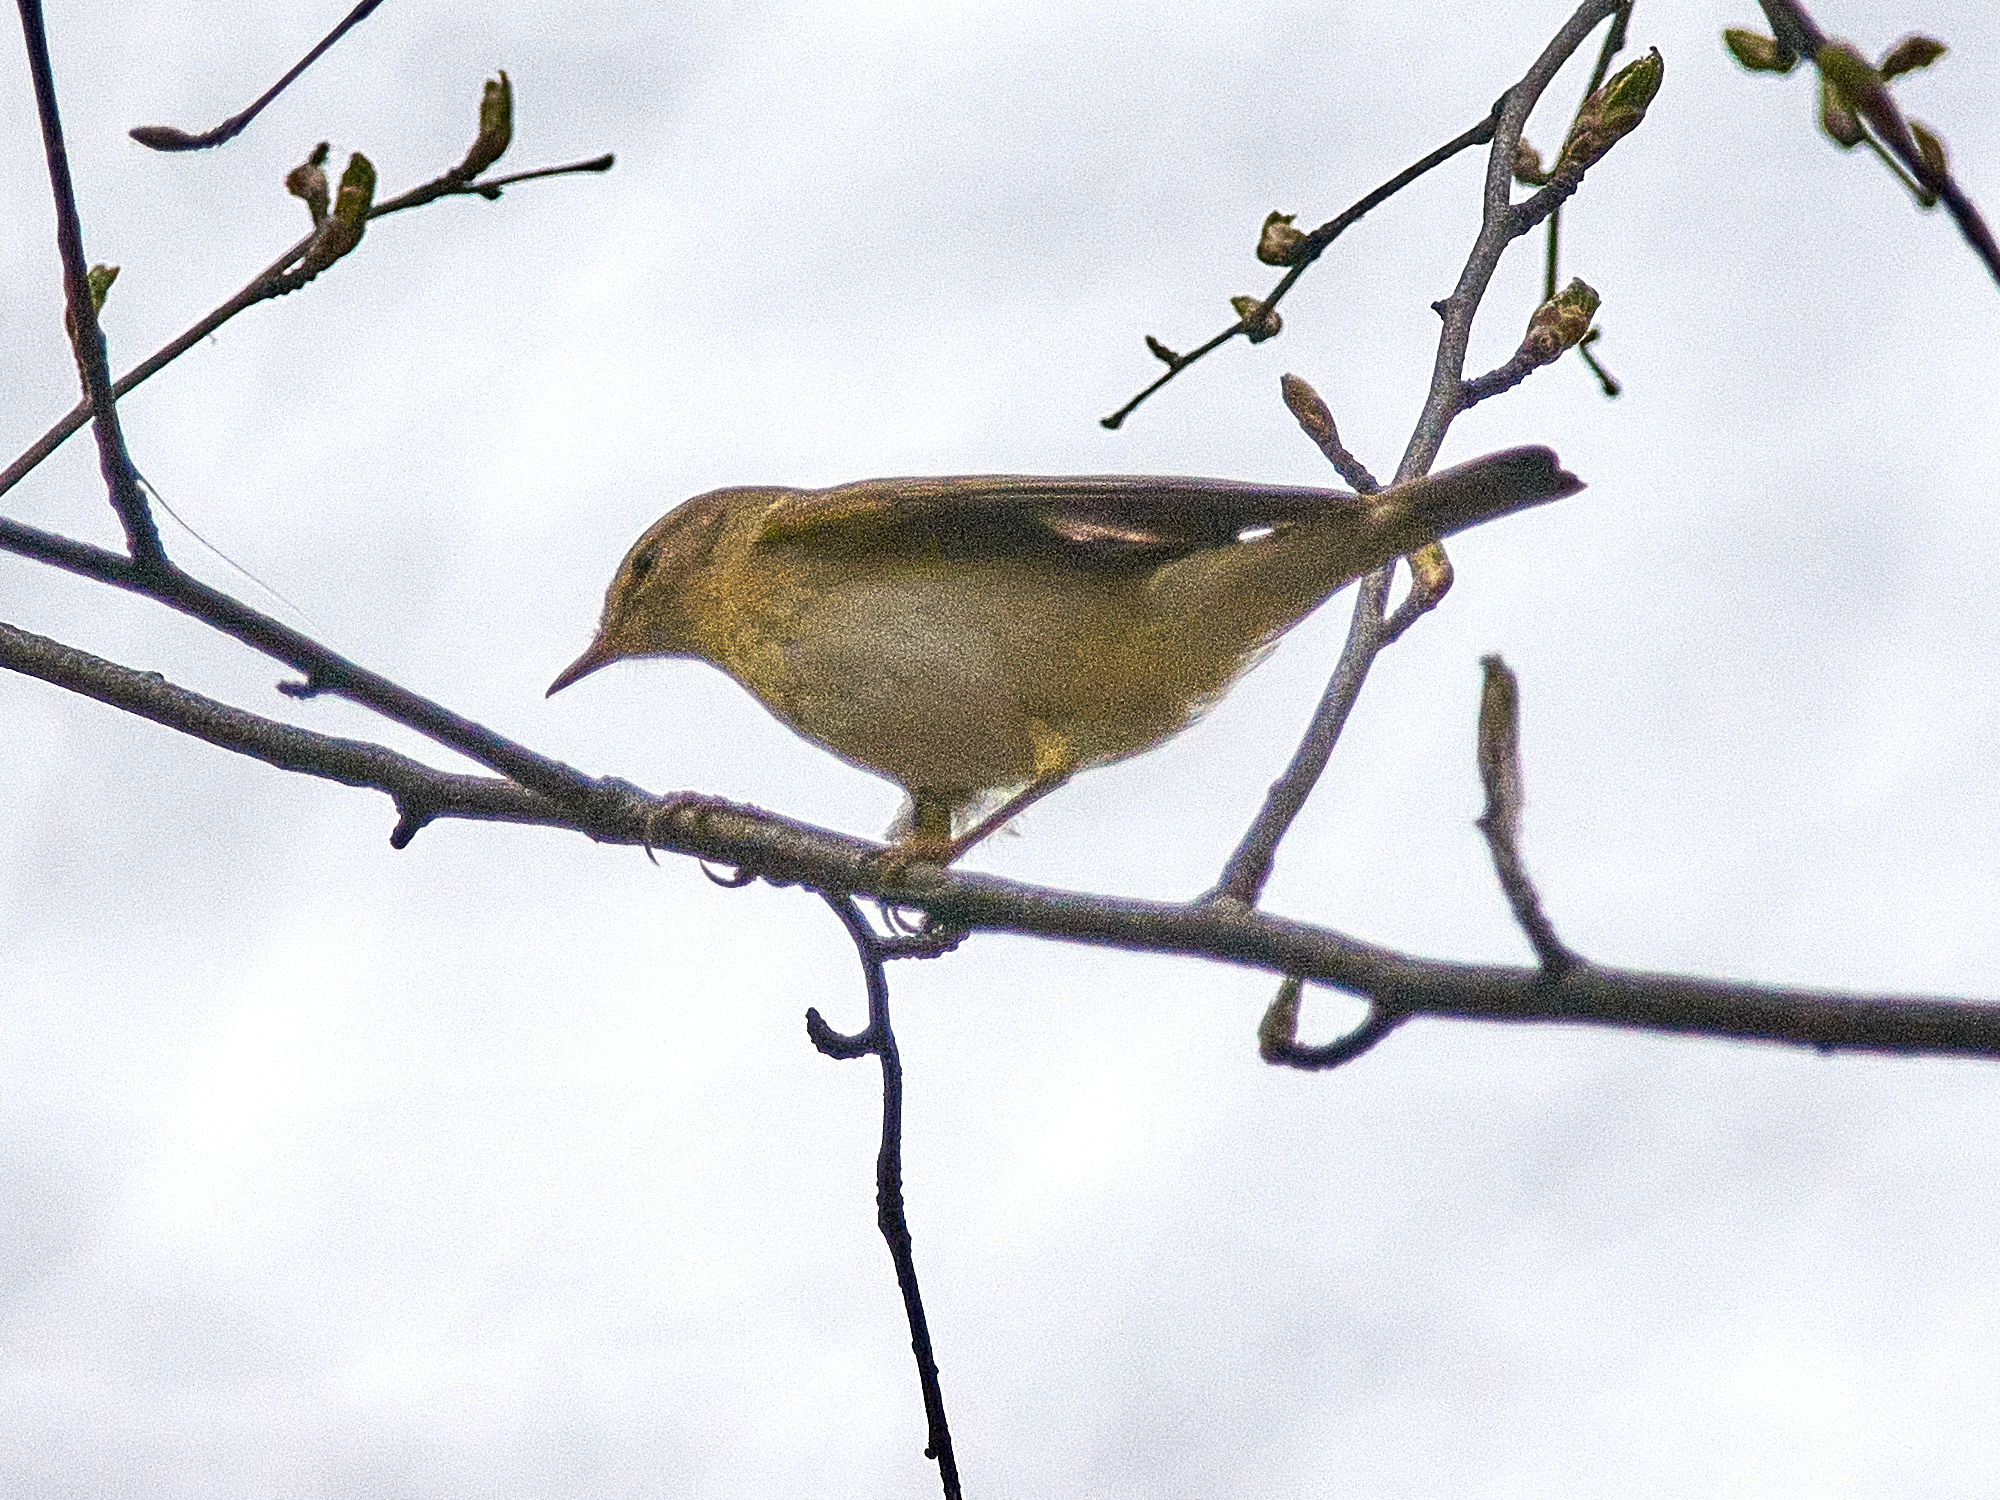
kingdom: Animalia
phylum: Chordata
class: Aves
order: Passeriformes
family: Phylloscopidae
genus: Phylloscopus
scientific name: Phylloscopus trochilus
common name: Willow warbler
